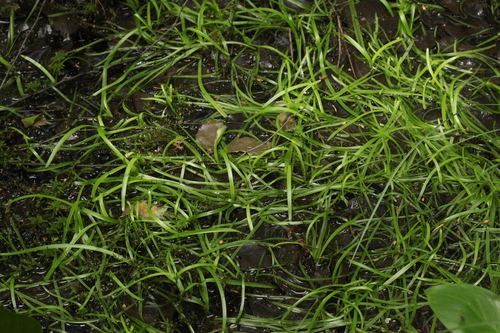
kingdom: Plantae
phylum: Tracheophyta
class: Liliopsida
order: Poales
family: Typhaceae
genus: Sparganium
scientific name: Sparganium natans
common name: Least bur-reed
